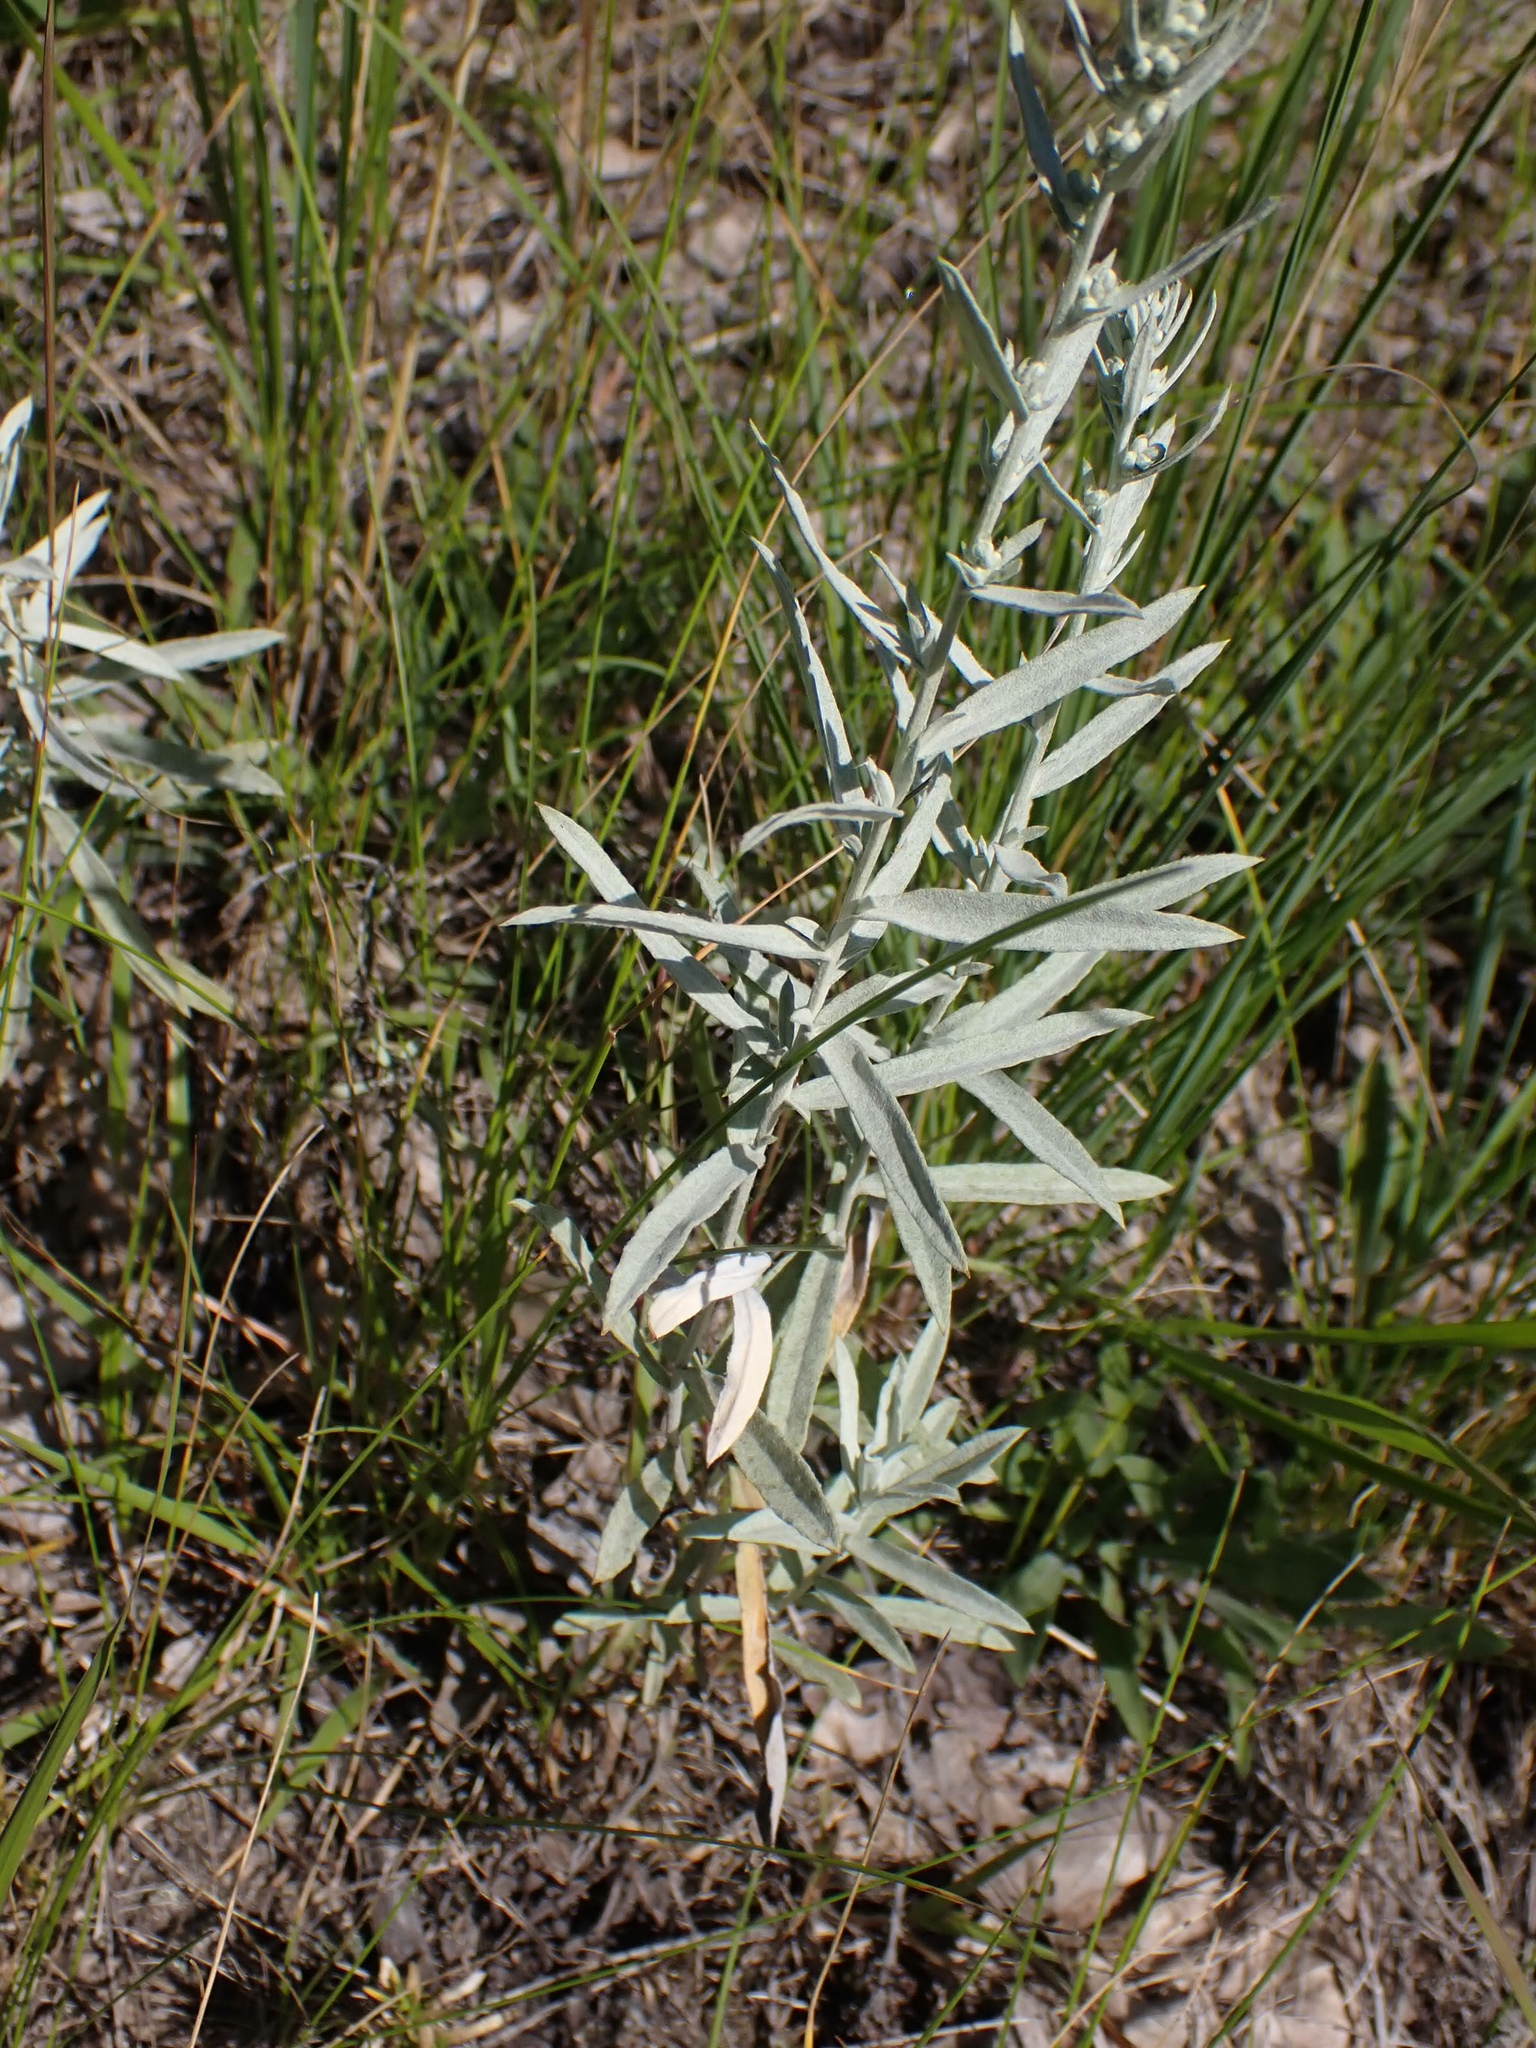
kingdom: Plantae
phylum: Tracheophyta
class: Magnoliopsida
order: Asterales
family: Asteraceae
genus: Artemisia
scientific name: Artemisia ludoviciana
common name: Western mugwort
